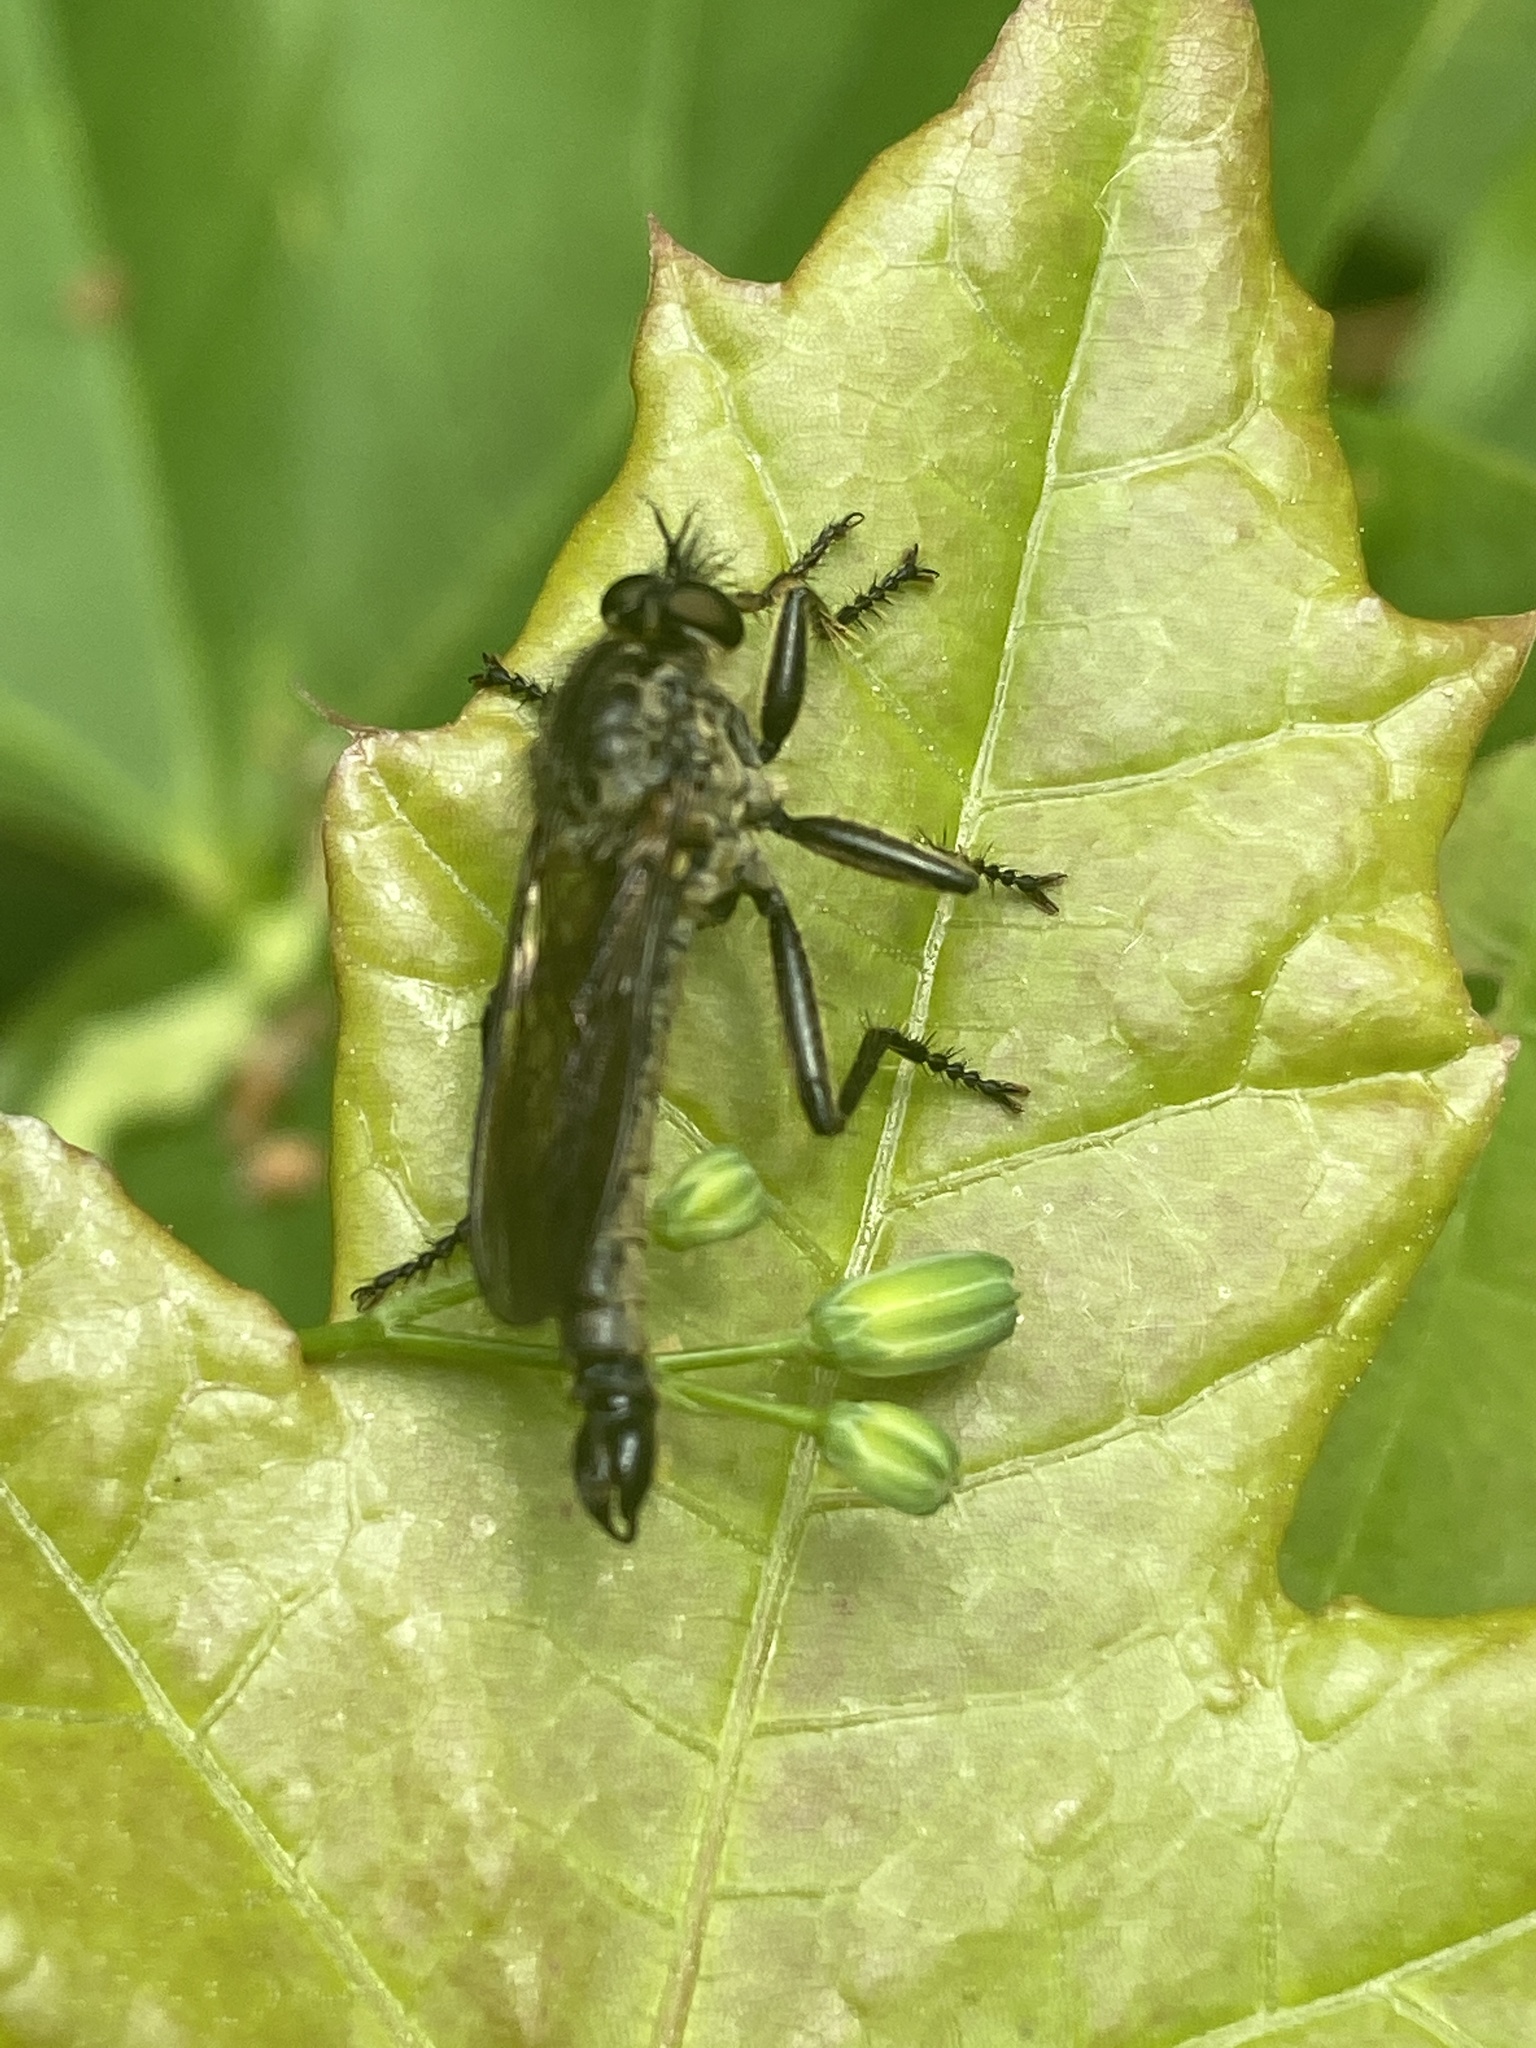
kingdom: Animalia
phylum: Arthropoda
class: Insecta
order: Diptera
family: Asilidae
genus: Didysmachus
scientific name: Didysmachus picipes
